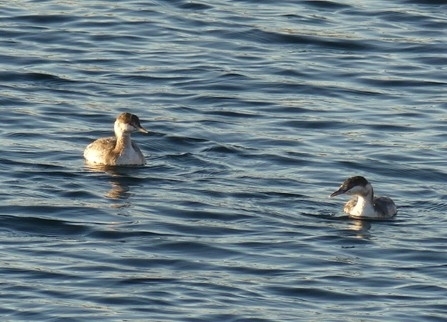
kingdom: Animalia
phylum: Chordata
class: Aves
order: Podicipediformes
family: Podicipedidae
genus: Podiceps
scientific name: Podiceps auritus
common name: Horned grebe
